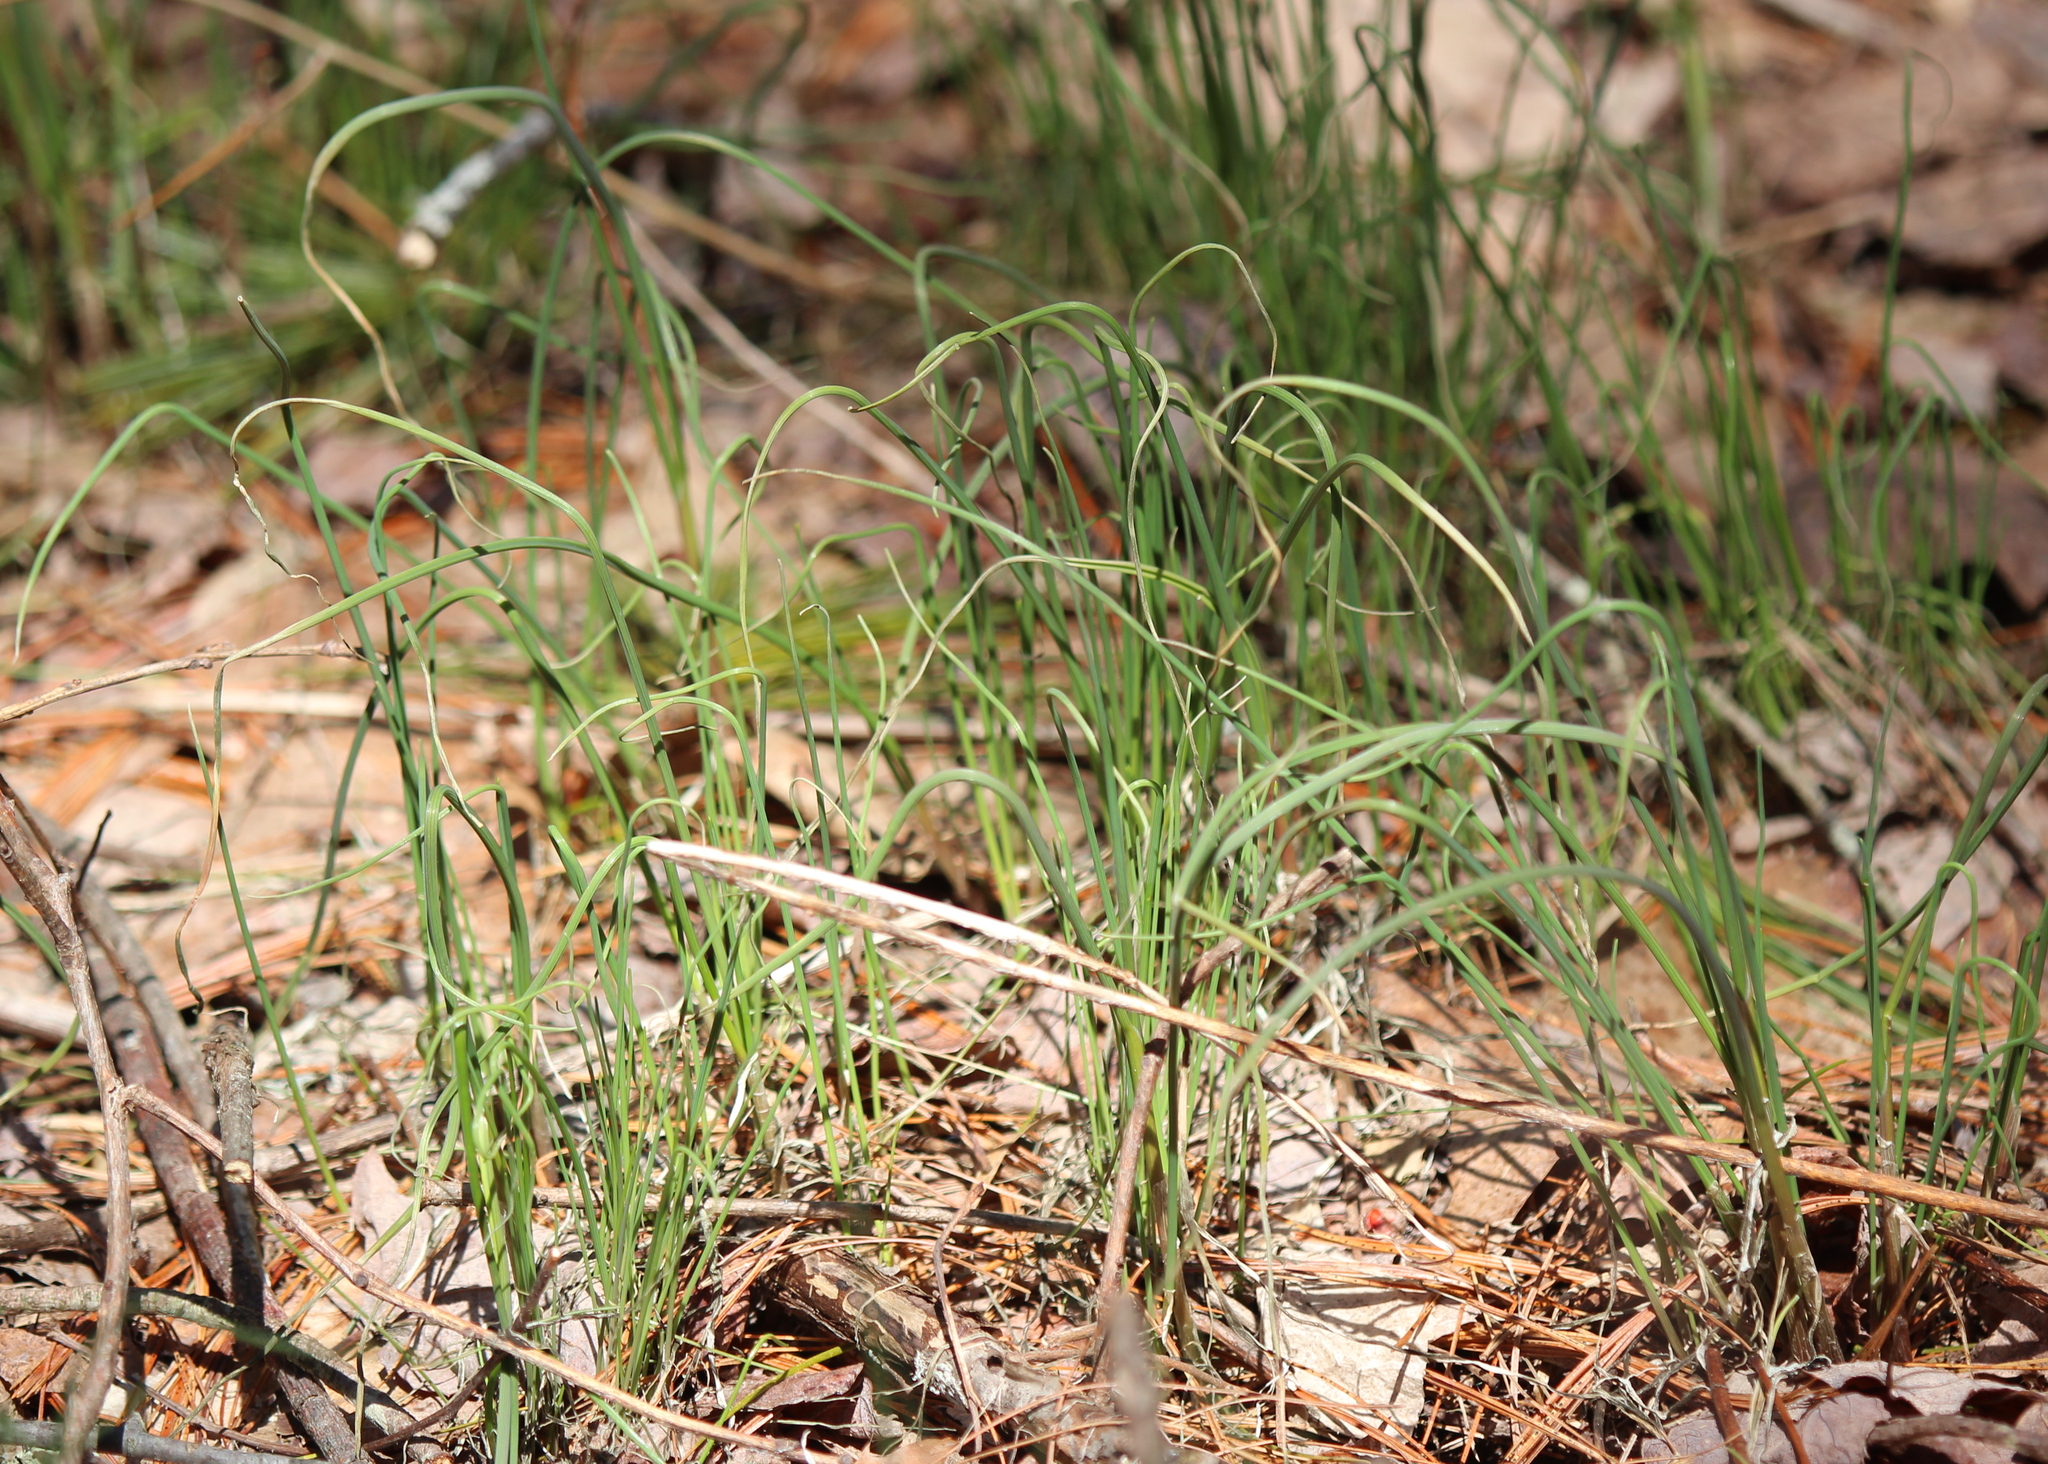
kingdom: Plantae
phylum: Tracheophyta
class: Liliopsida
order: Asparagales
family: Amaryllidaceae
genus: Allium
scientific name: Allium vineale
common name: Crow garlic
